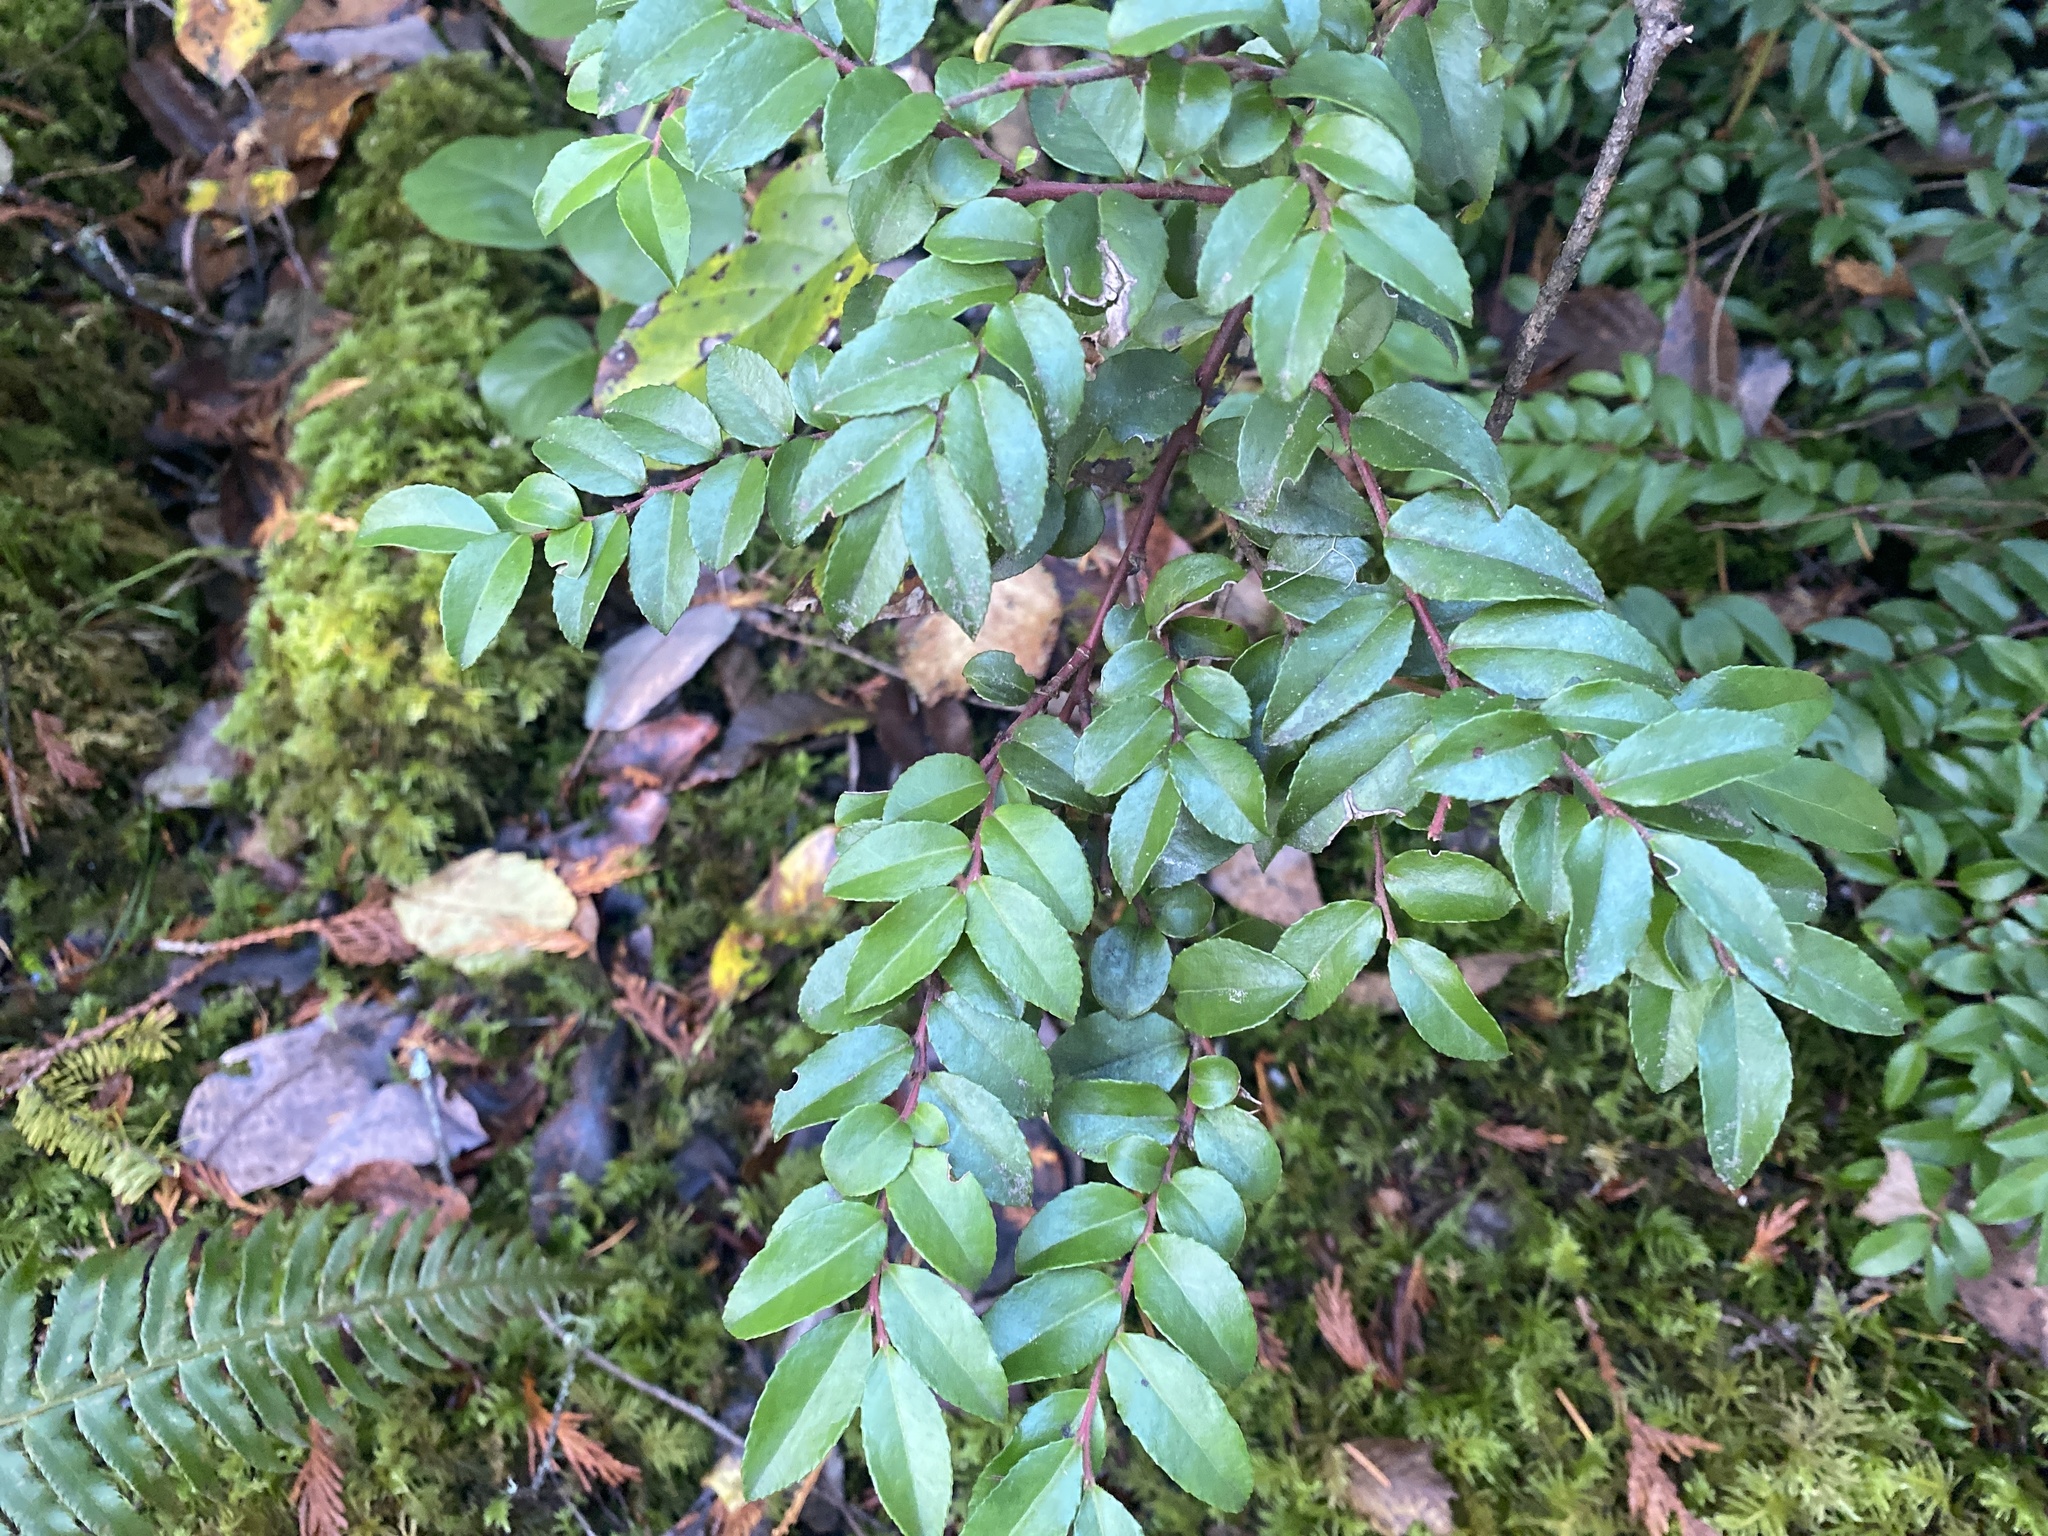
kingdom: Plantae
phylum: Tracheophyta
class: Magnoliopsida
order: Ericales
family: Ericaceae
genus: Vaccinium
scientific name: Vaccinium ovatum
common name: California-huckleberry
